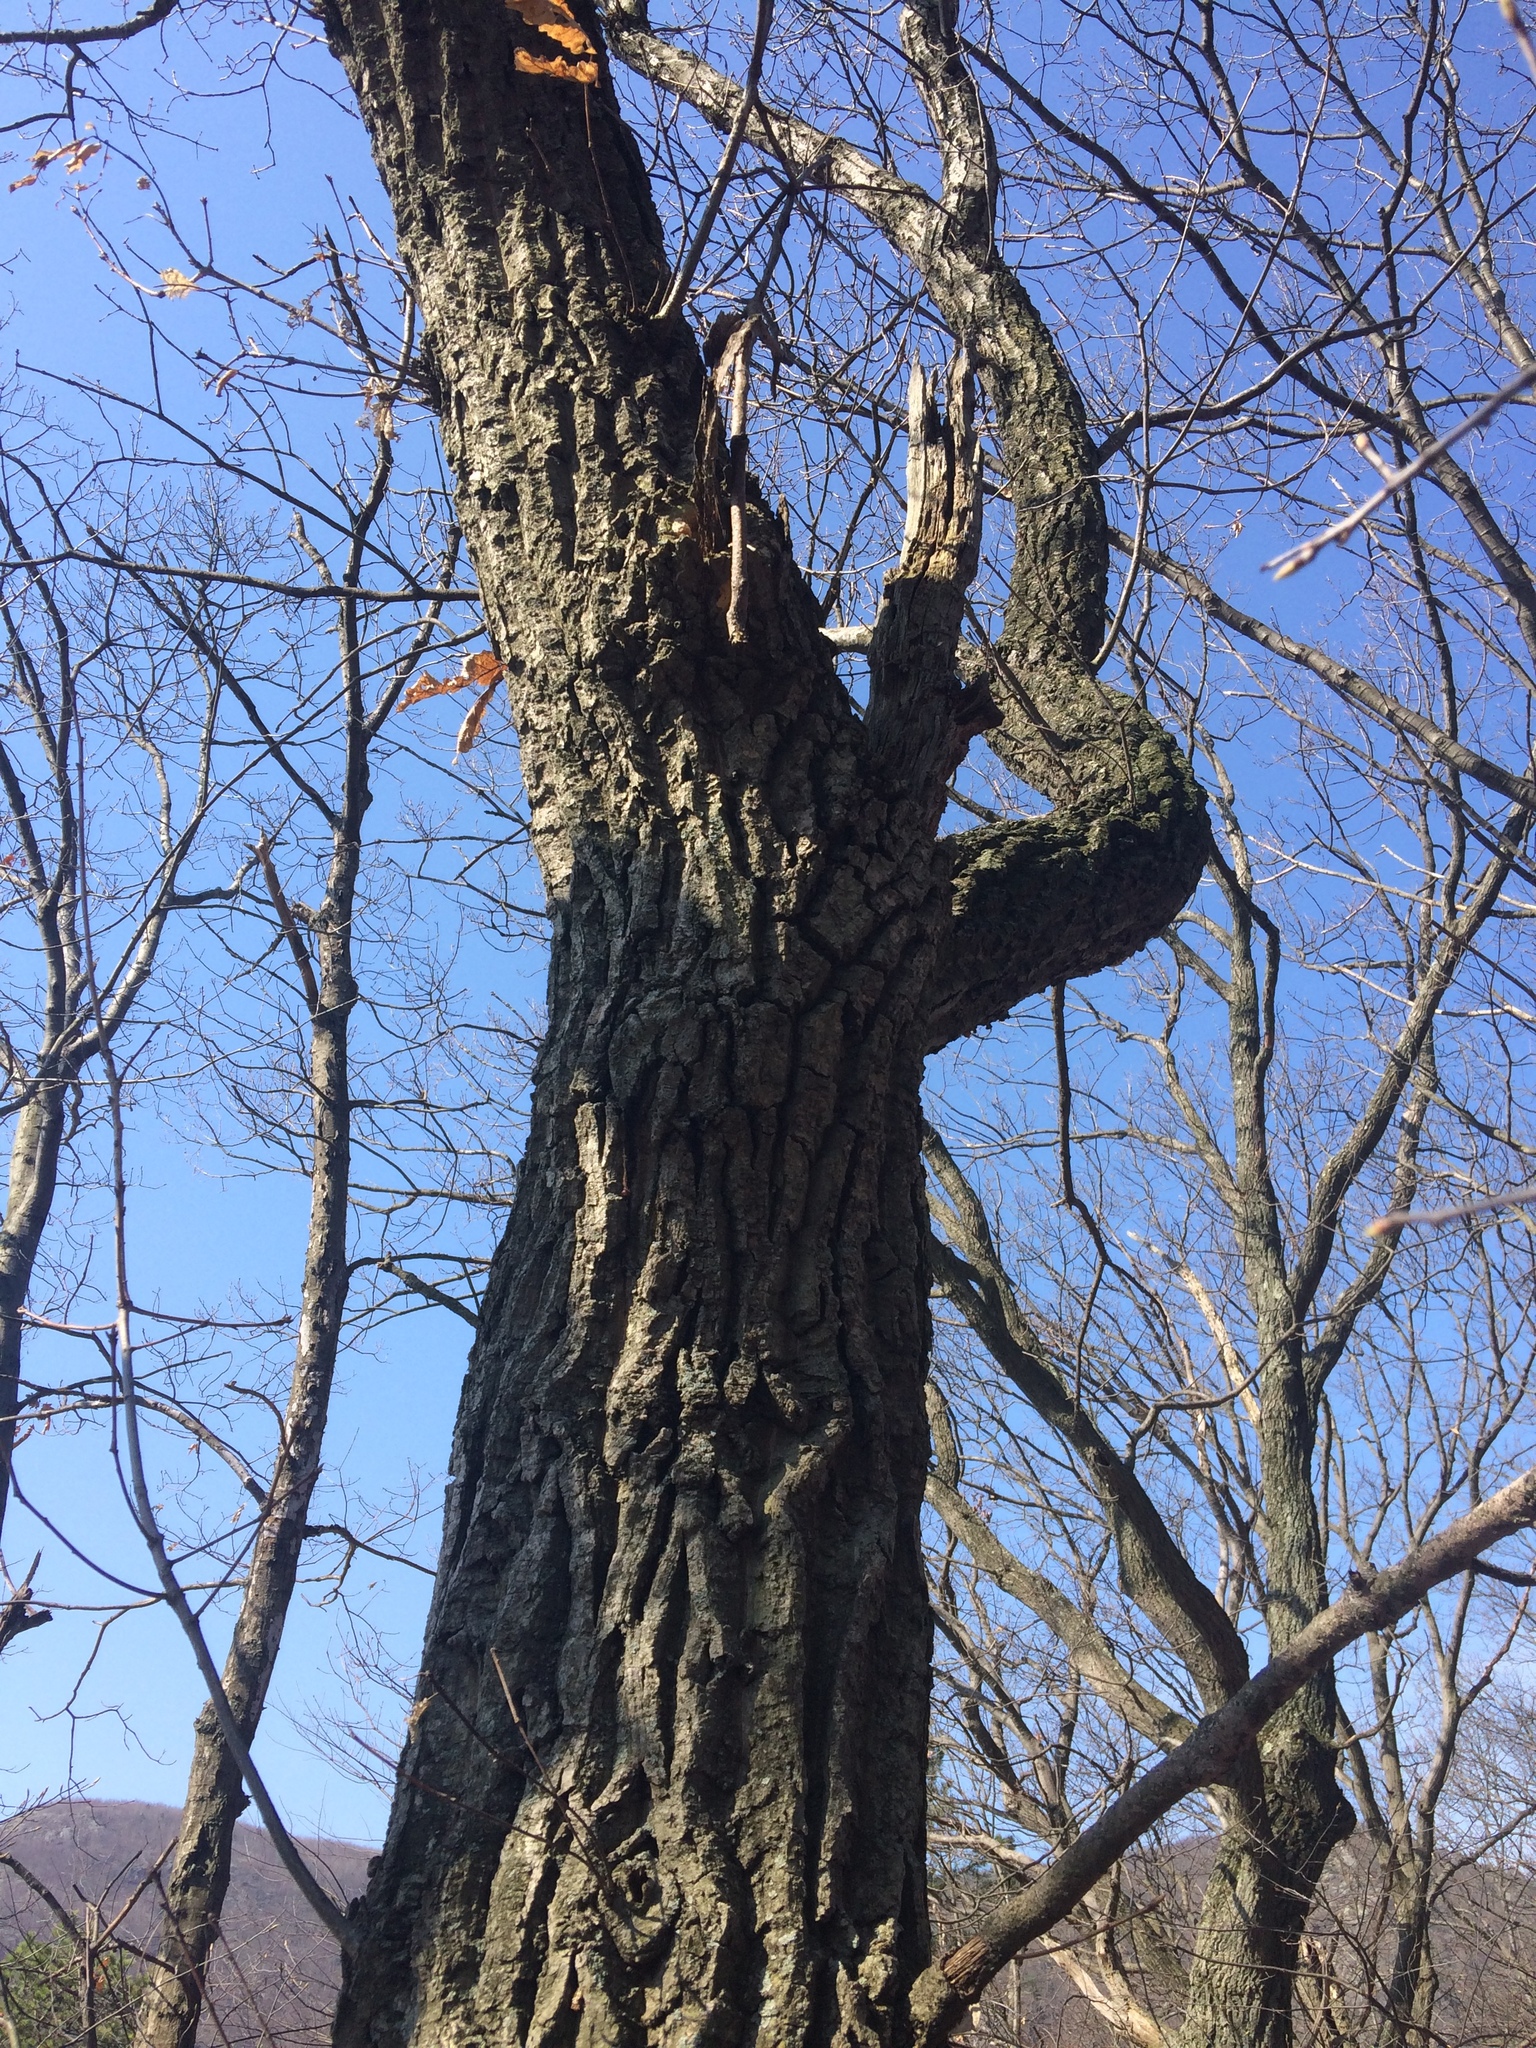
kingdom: Plantae
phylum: Tracheophyta
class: Magnoliopsida
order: Fagales
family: Fagaceae
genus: Quercus
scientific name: Quercus rubra
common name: Red oak
